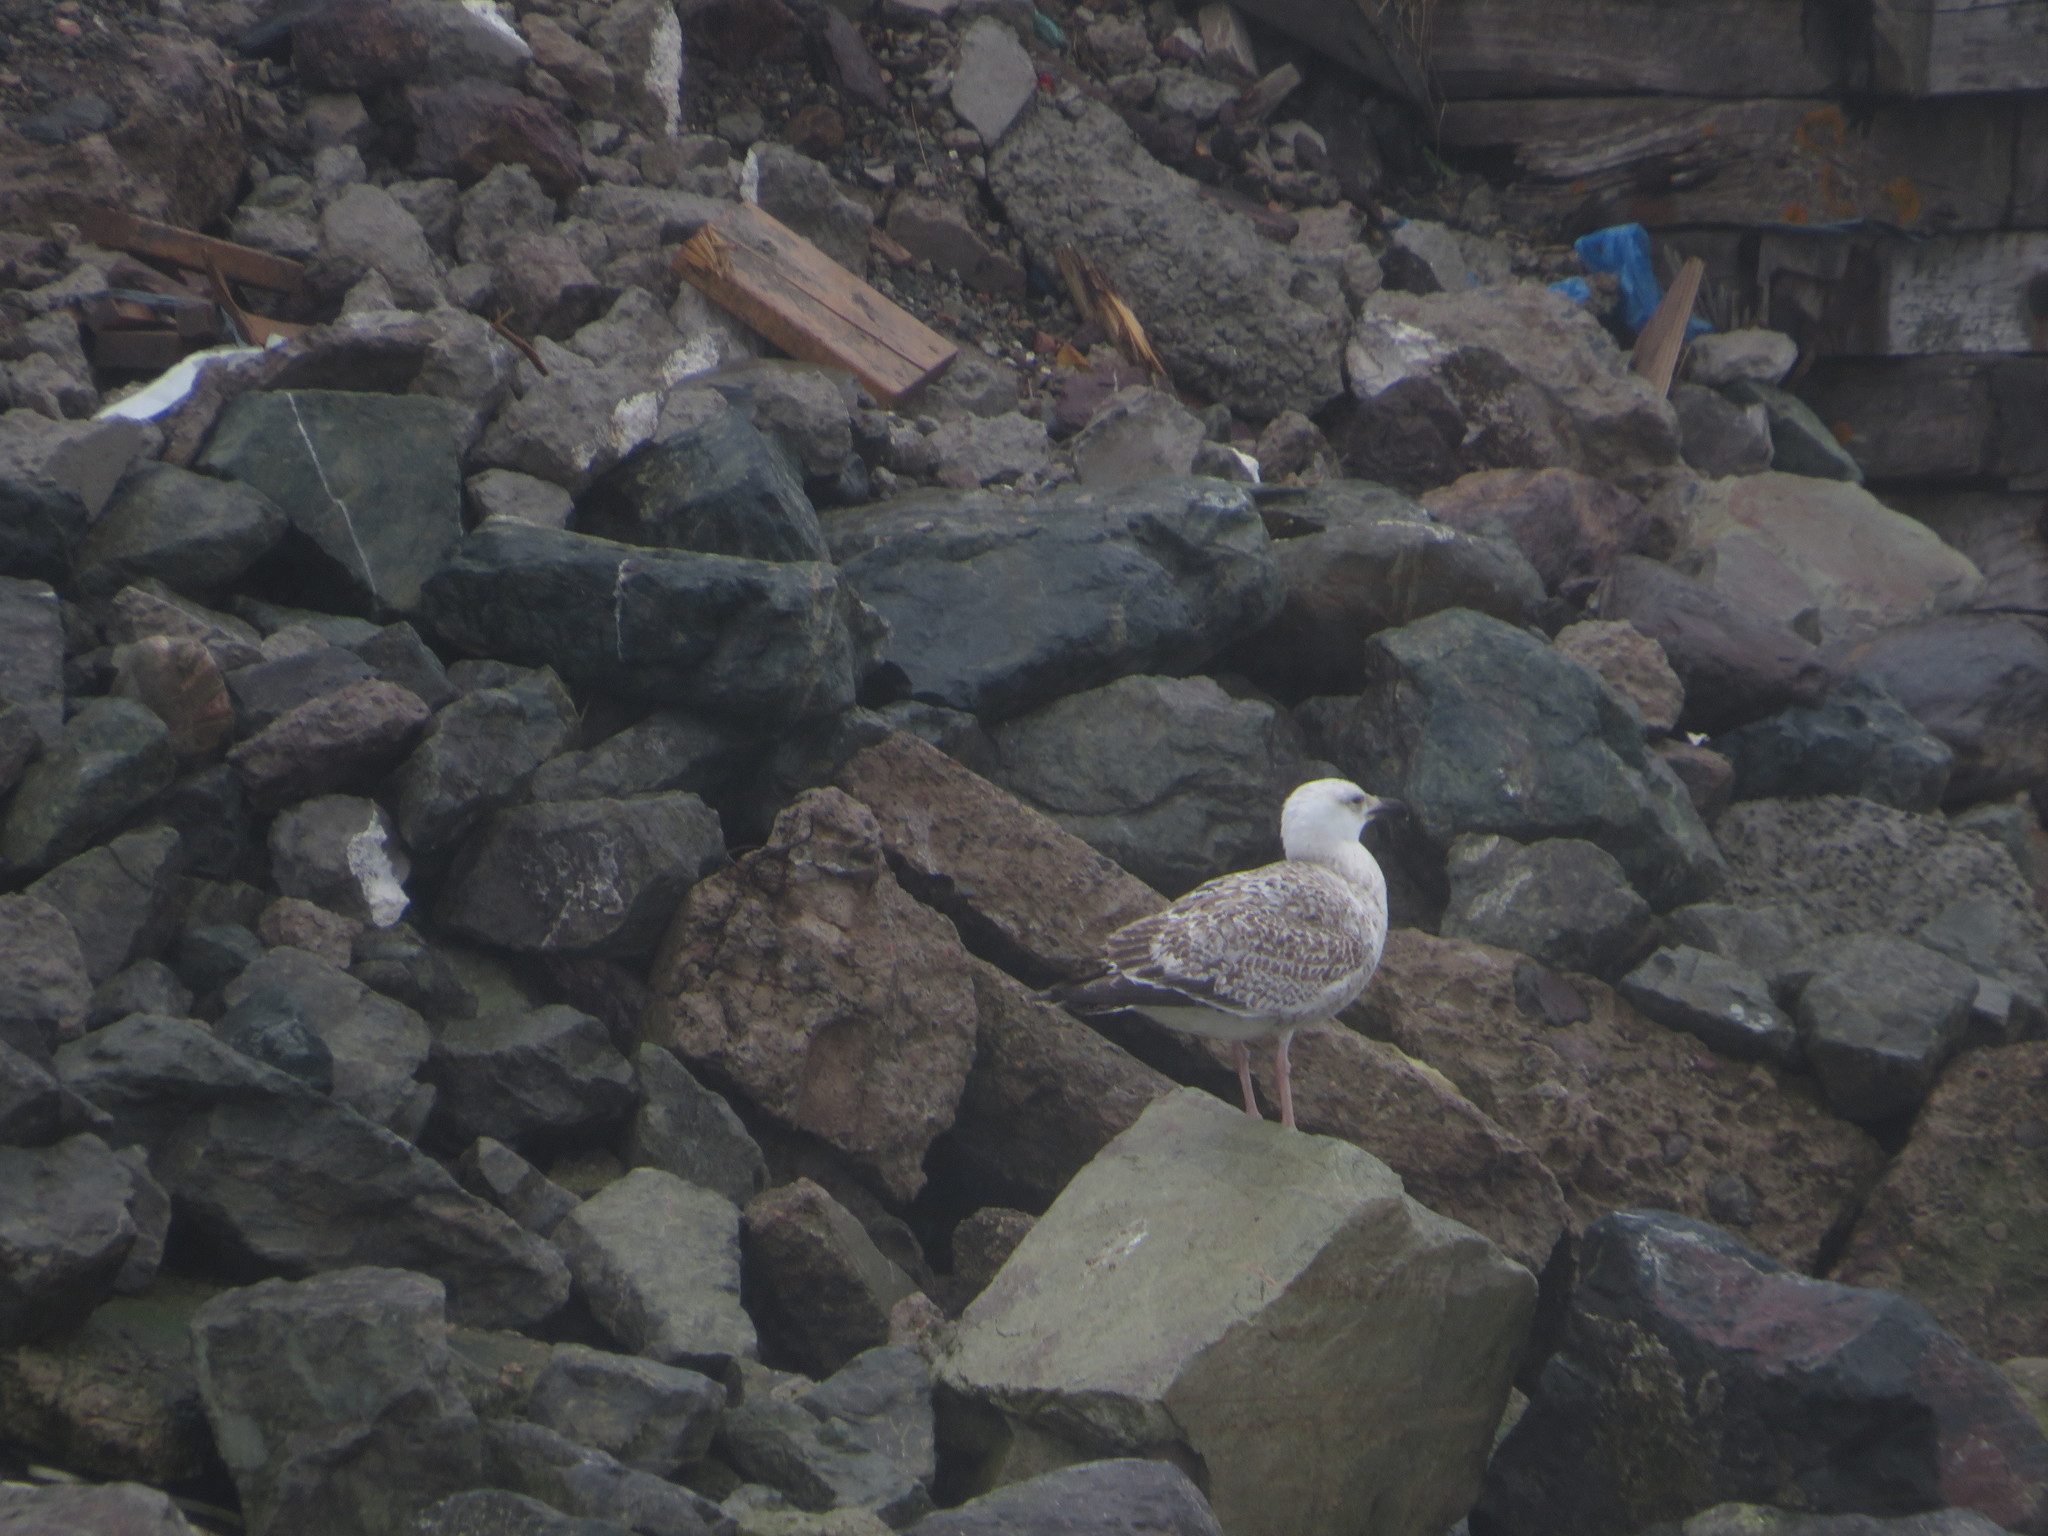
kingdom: Animalia
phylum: Chordata
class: Aves
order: Charadriiformes
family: Laridae
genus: Larus
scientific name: Larus marinus
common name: Great black-backed gull
